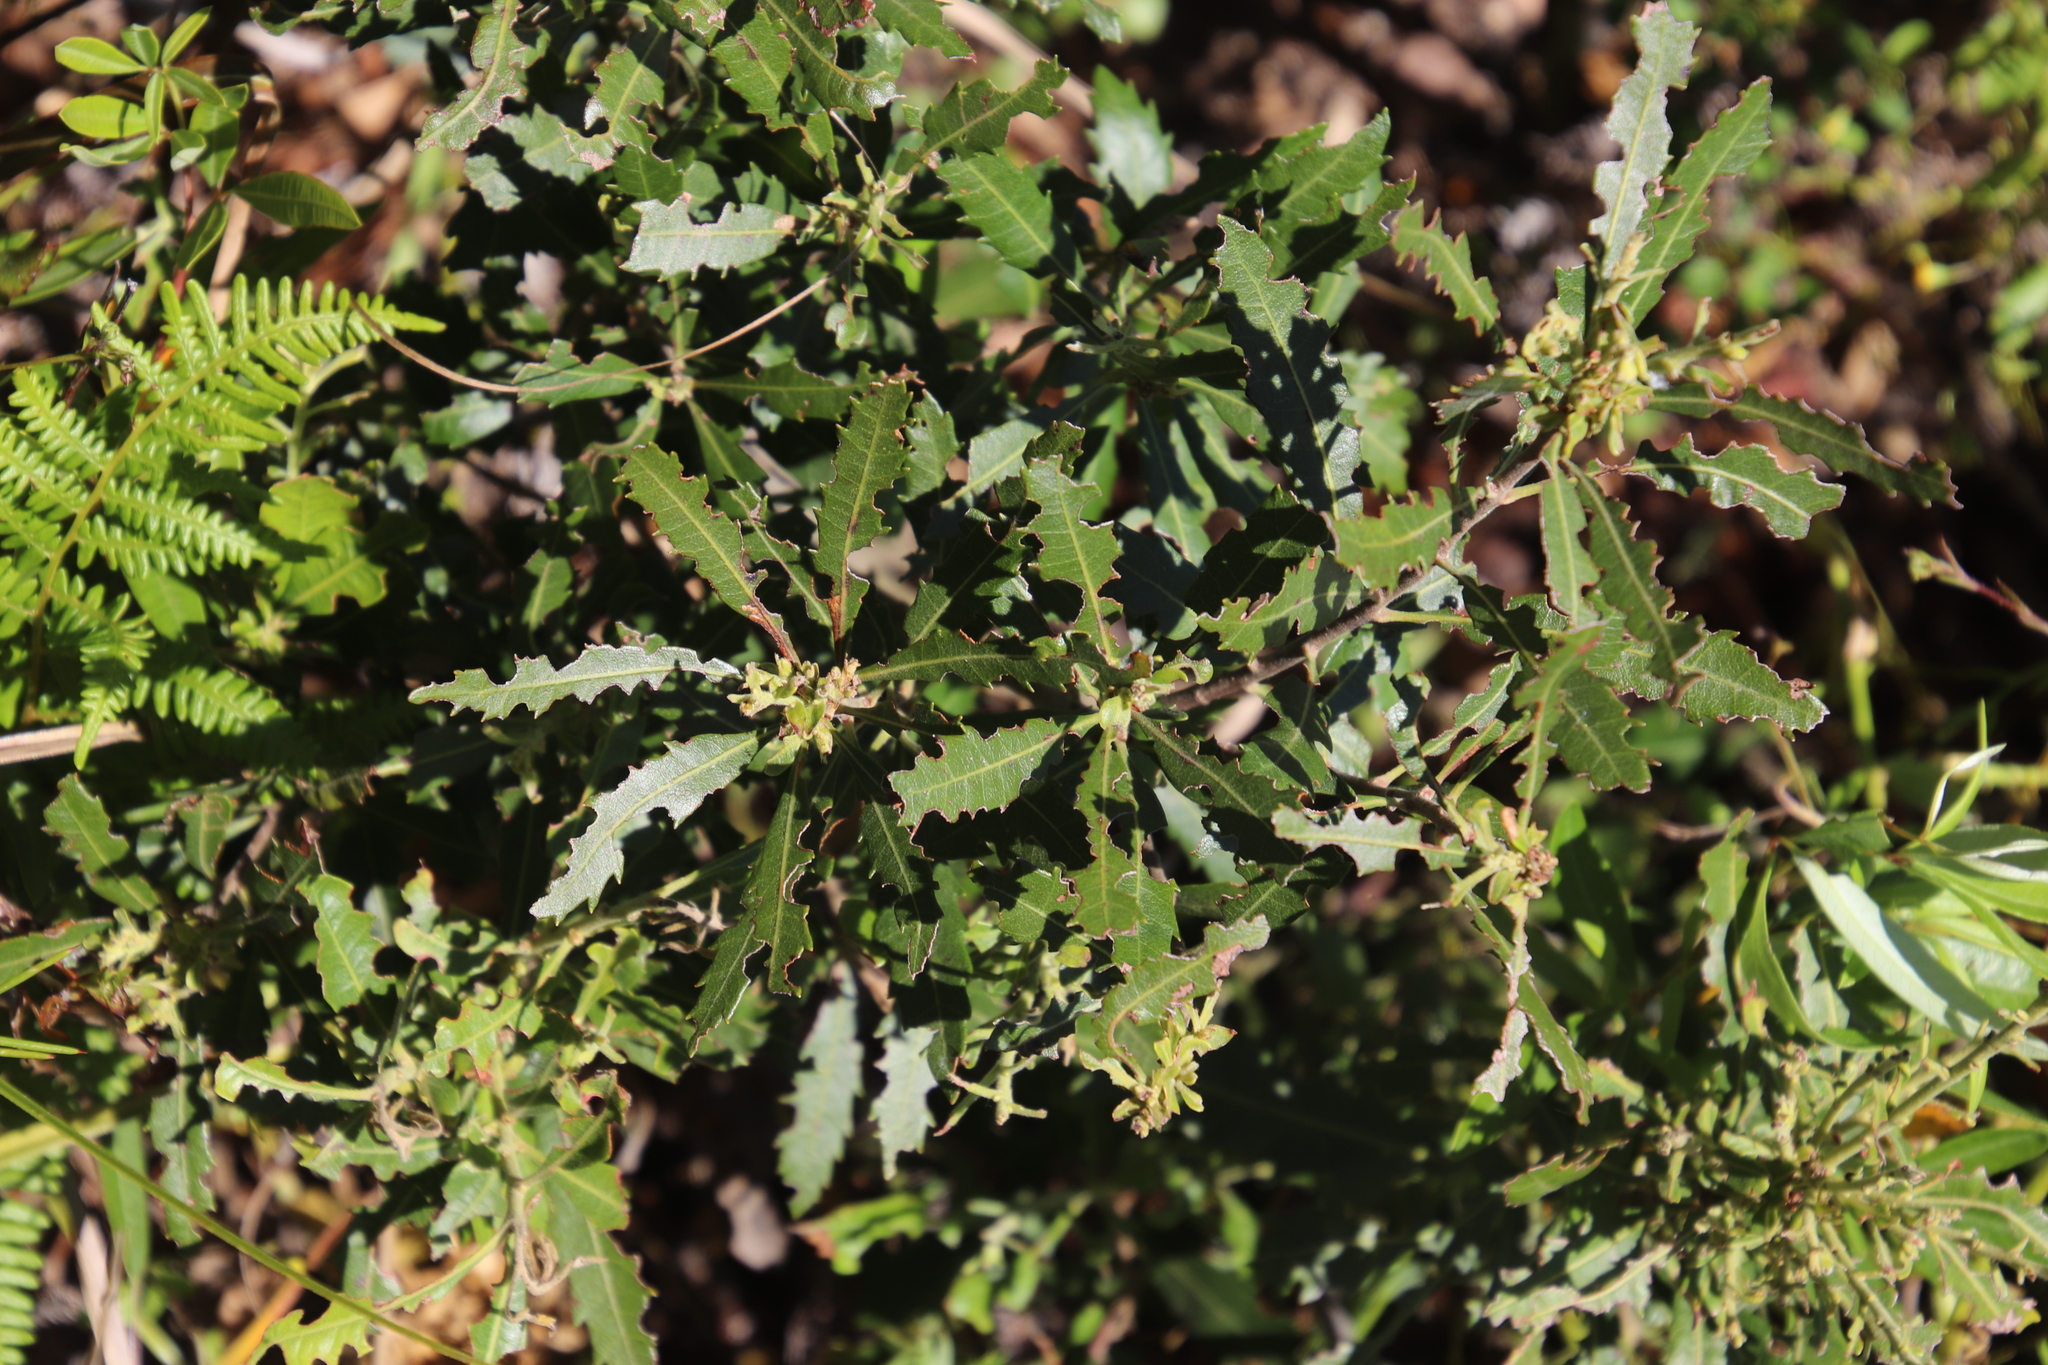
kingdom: Plantae
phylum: Tracheophyta
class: Magnoliopsida
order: Fagales
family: Myricaceae
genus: Morella
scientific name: Morella serrata
